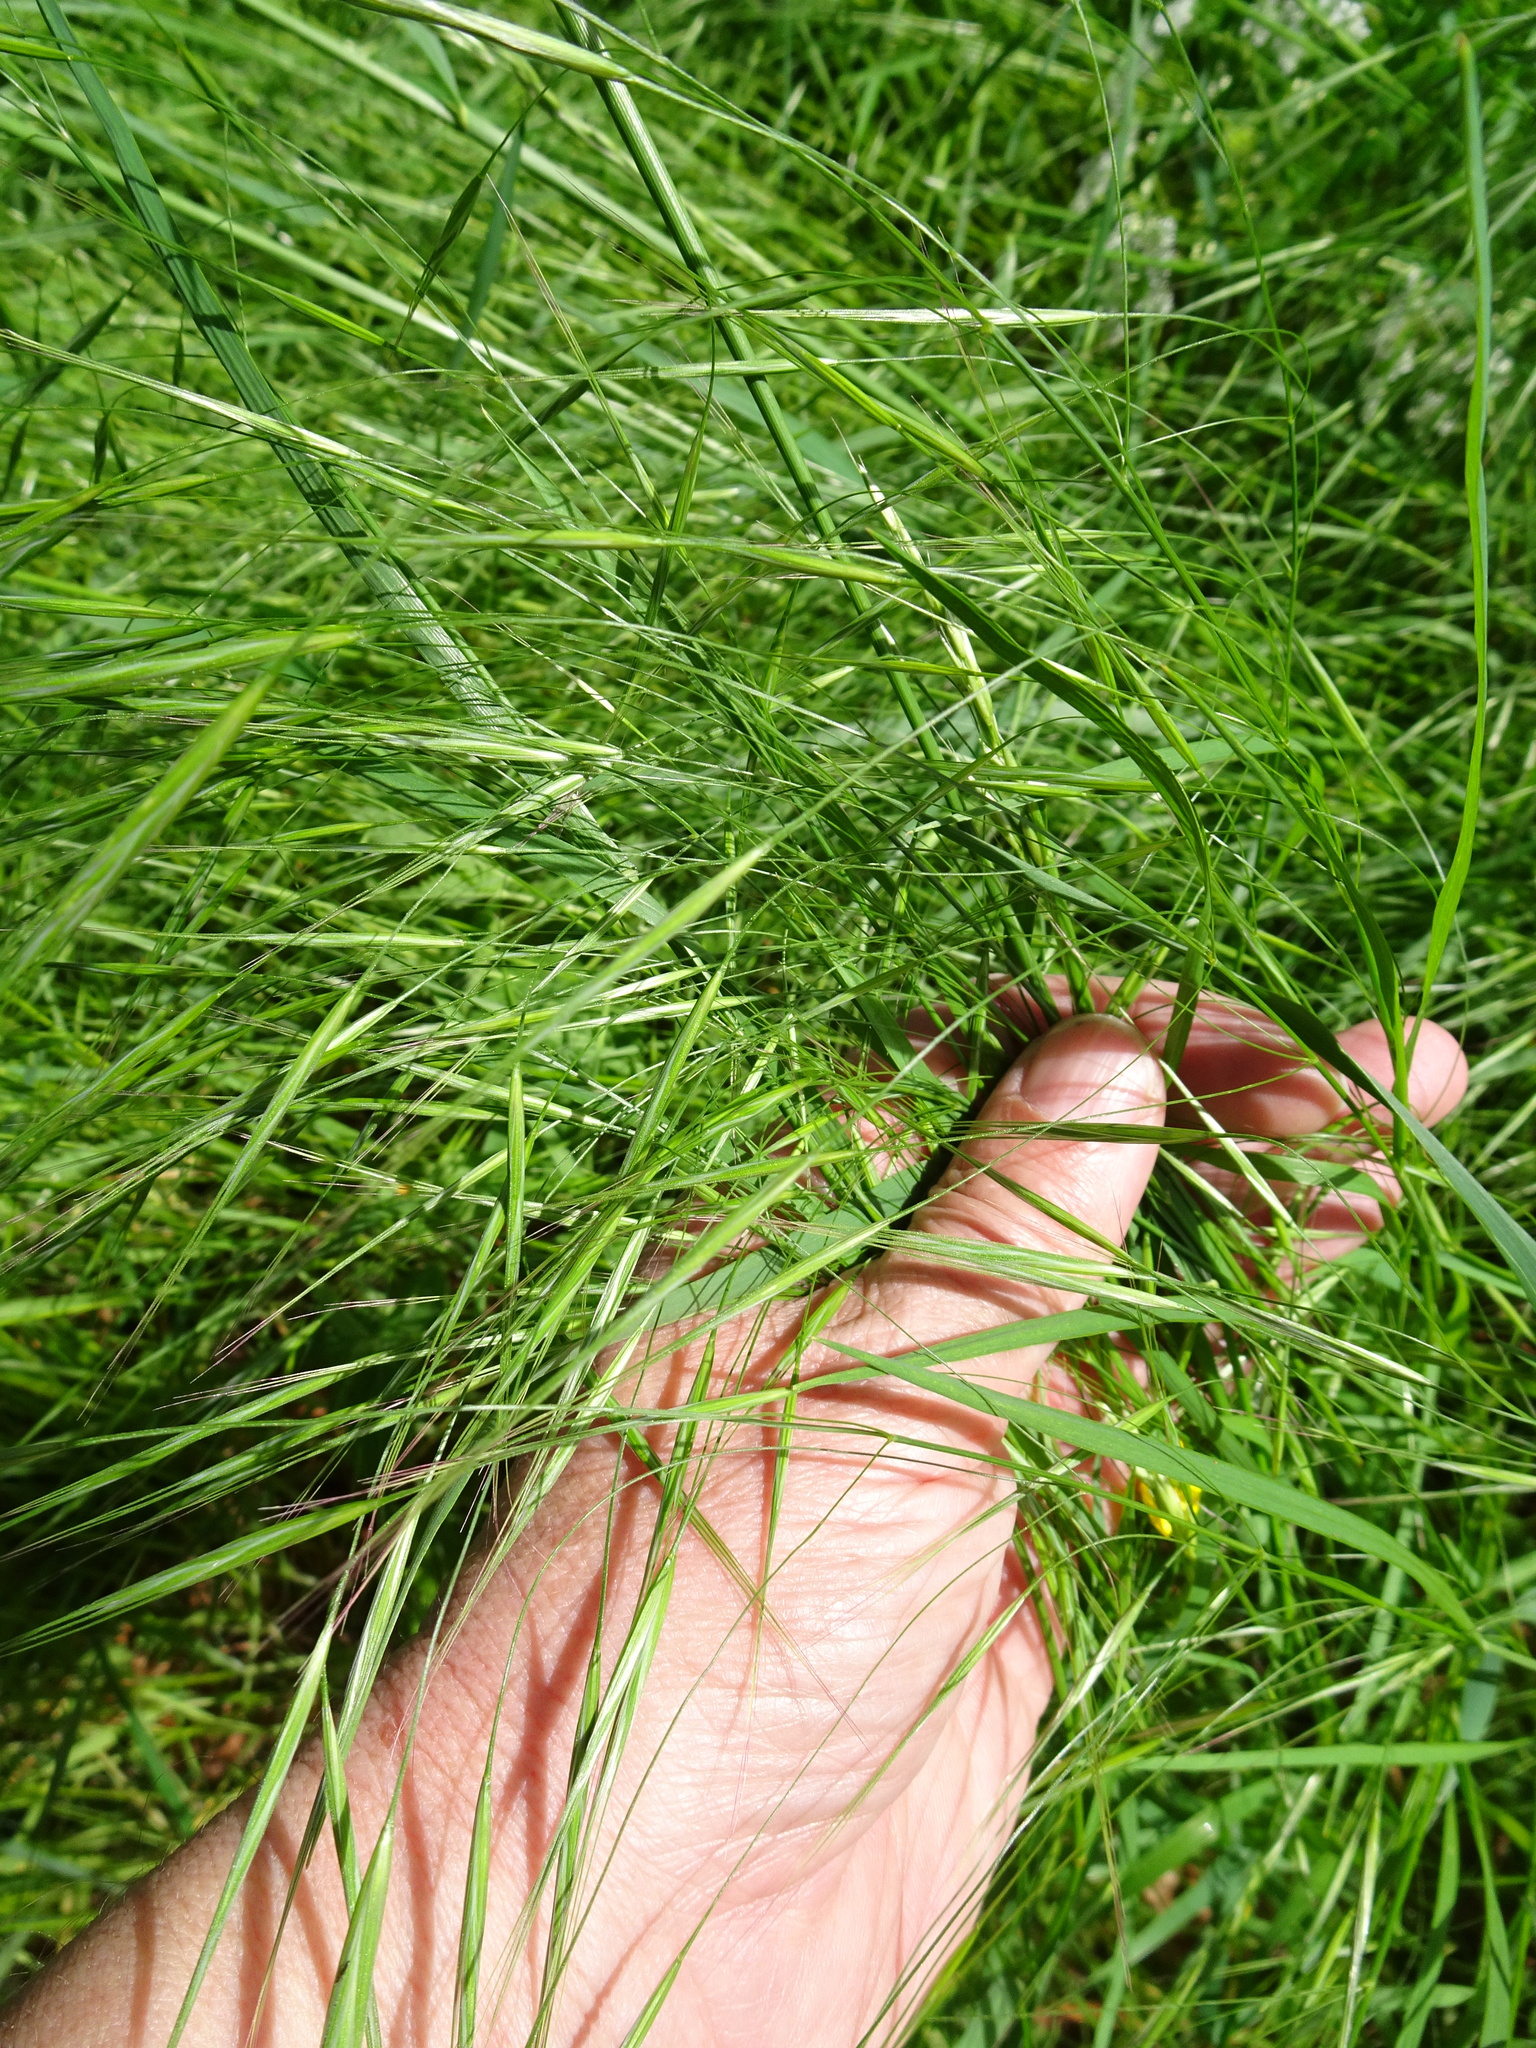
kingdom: Plantae
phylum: Tracheophyta
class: Liliopsida
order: Poales
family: Poaceae
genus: Bromus
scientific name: Bromus sterilis
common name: Poverty brome
